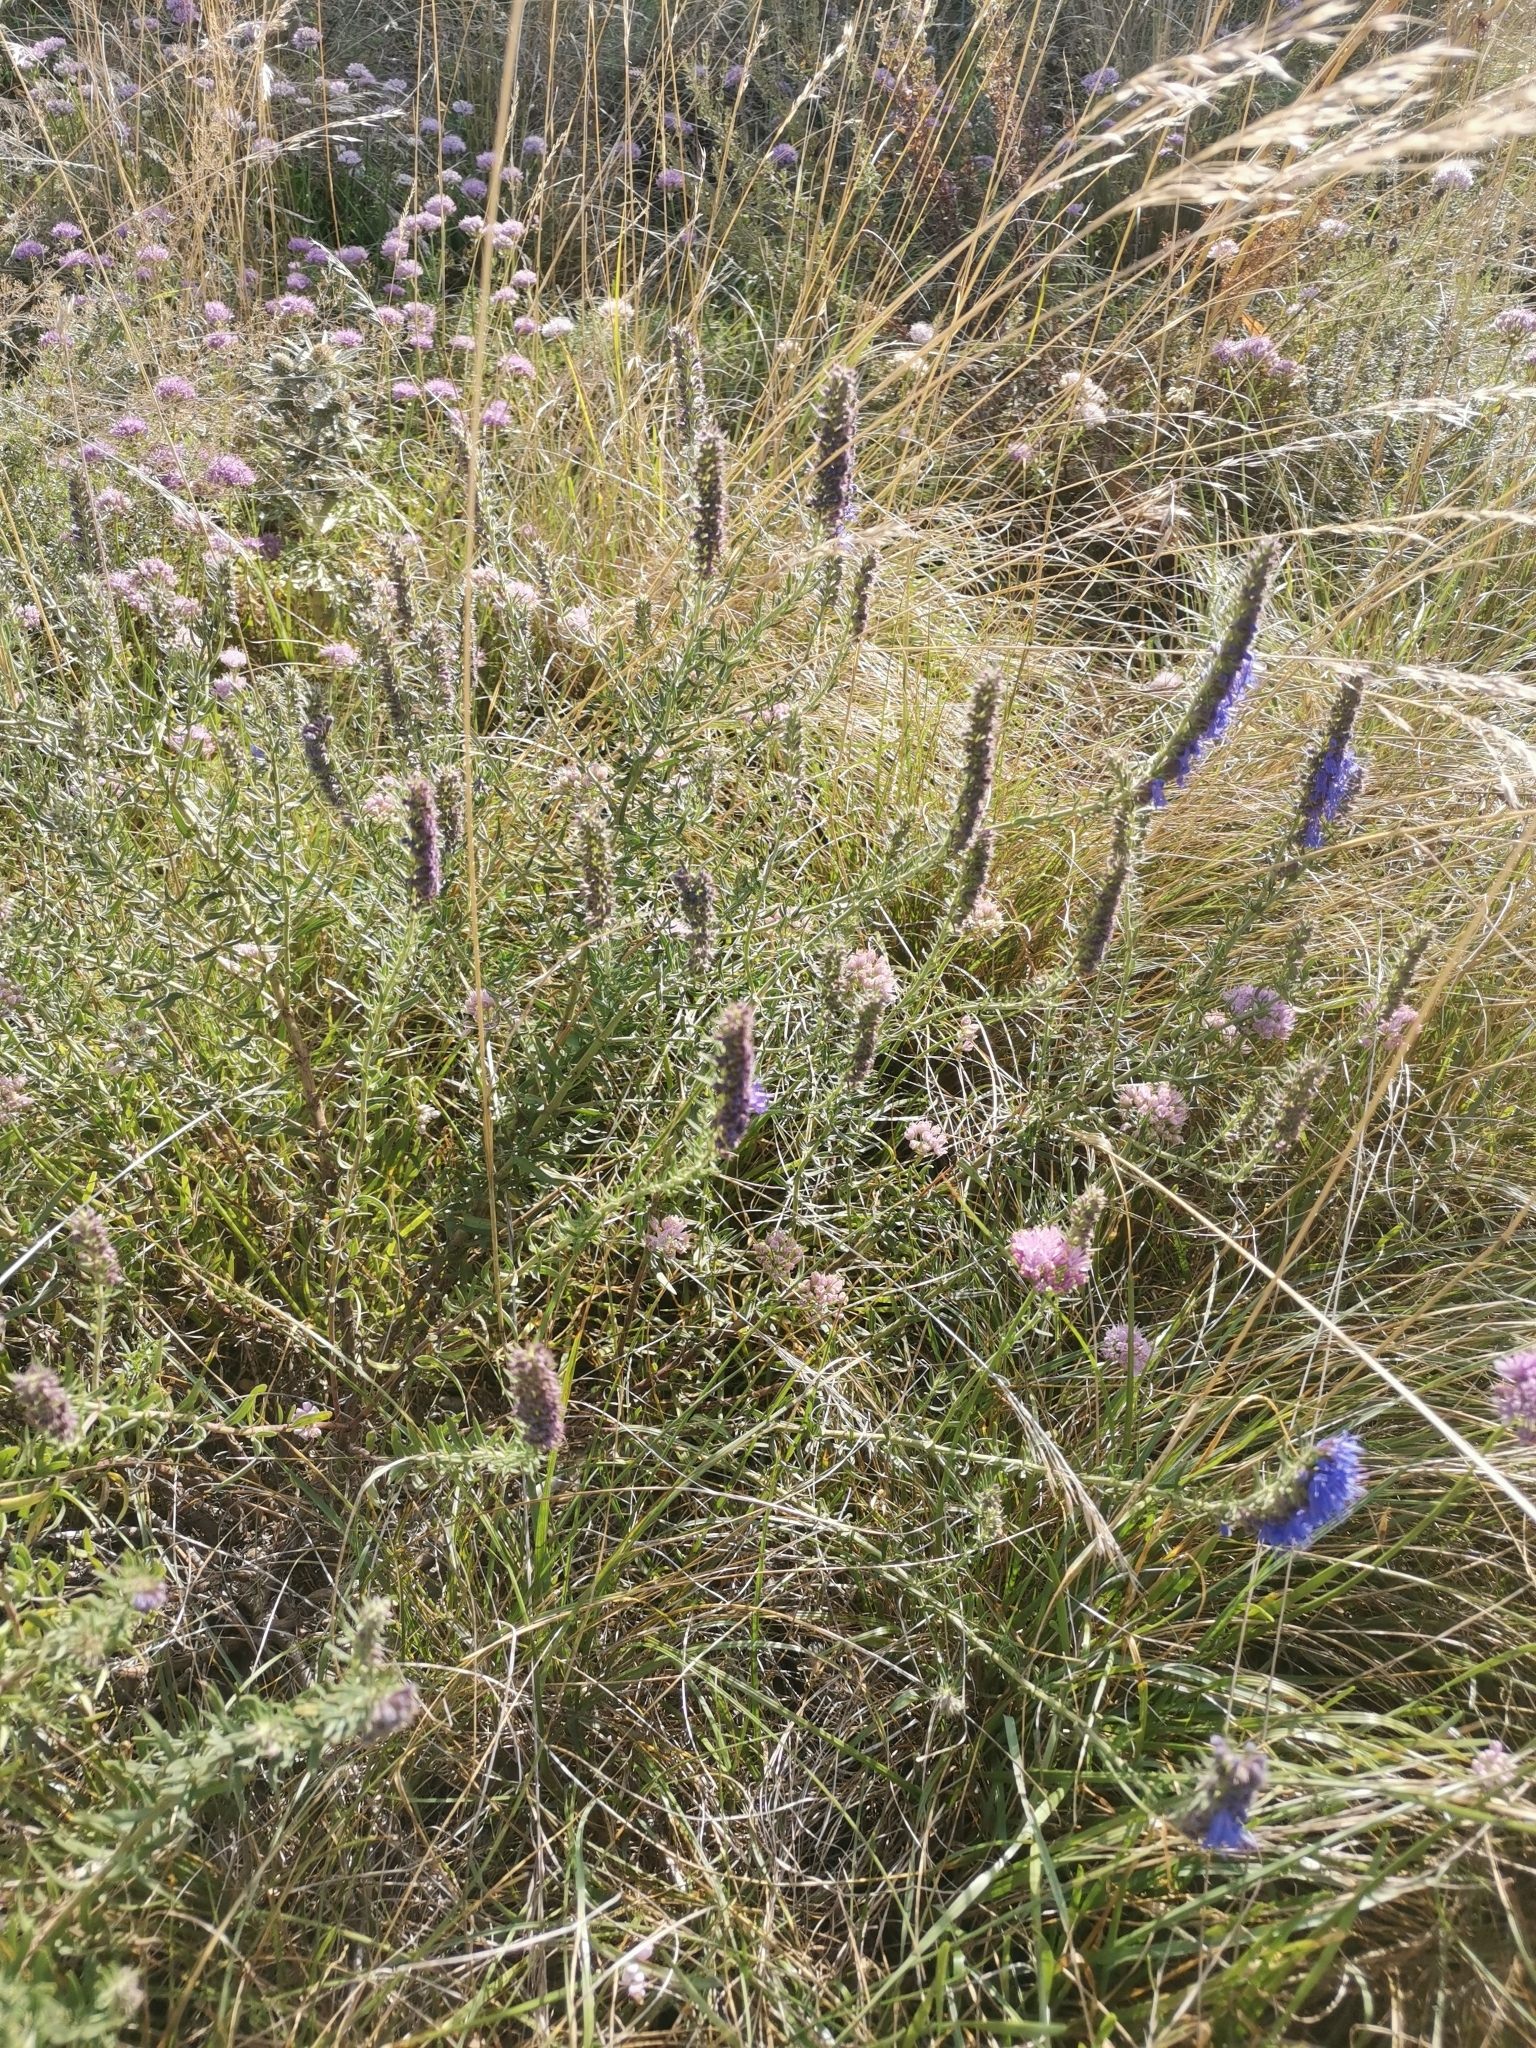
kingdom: Plantae
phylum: Tracheophyta
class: Magnoliopsida
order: Lamiales
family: Lamiaceae
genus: Hyssopus
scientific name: Hyssopus officinalis
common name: Hyssop
